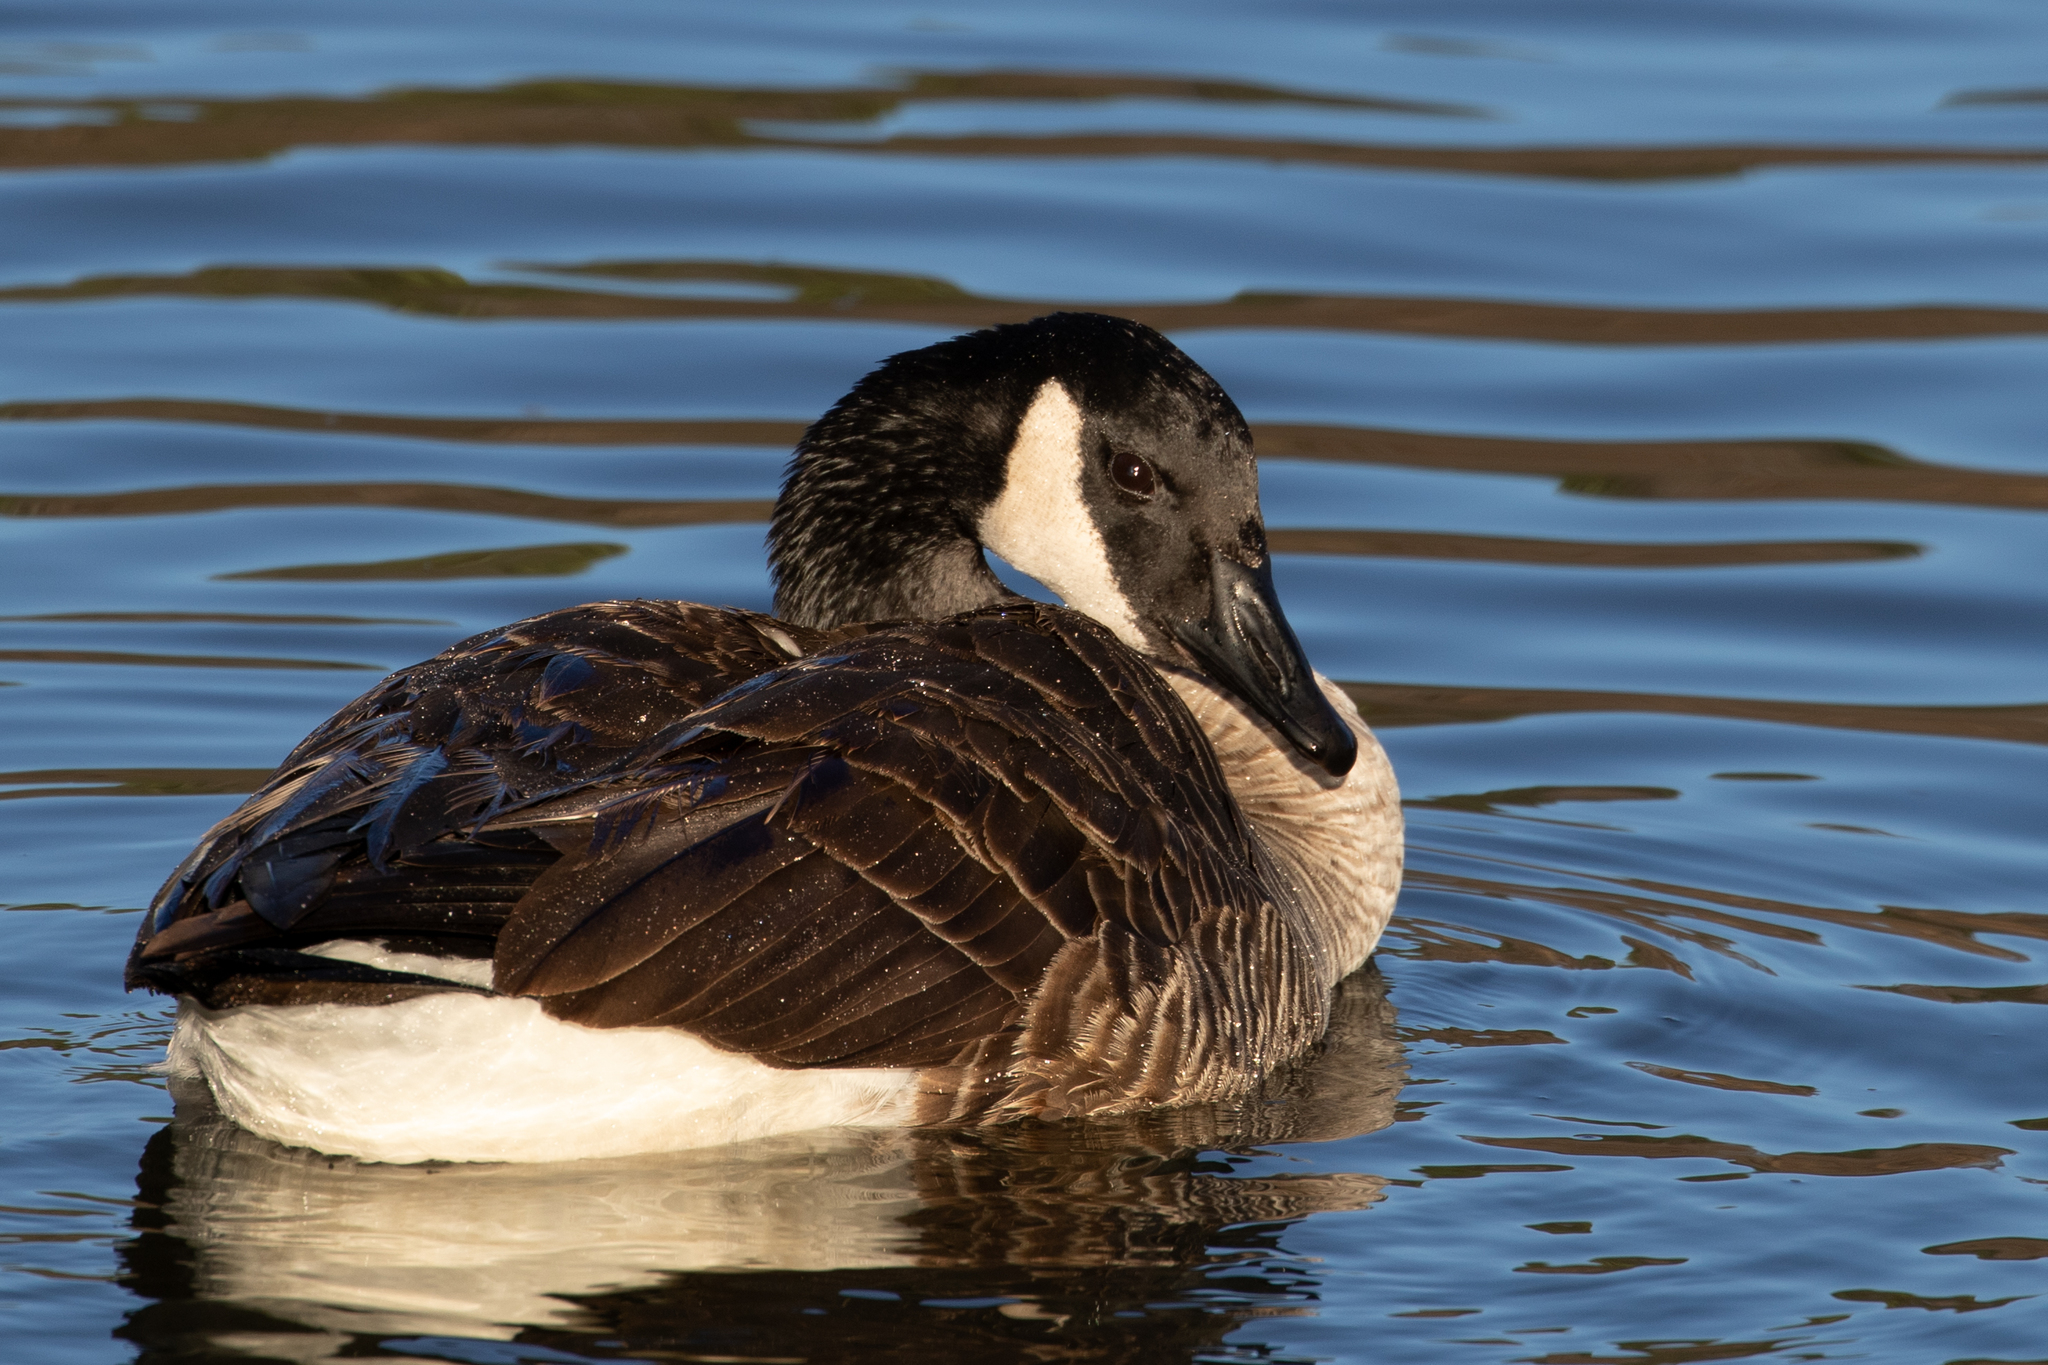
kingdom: Animalia
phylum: Chordata
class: Aves
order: Anseriformes
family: Anatidae
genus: Branta
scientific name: Branta canadensis
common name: Canada goose
